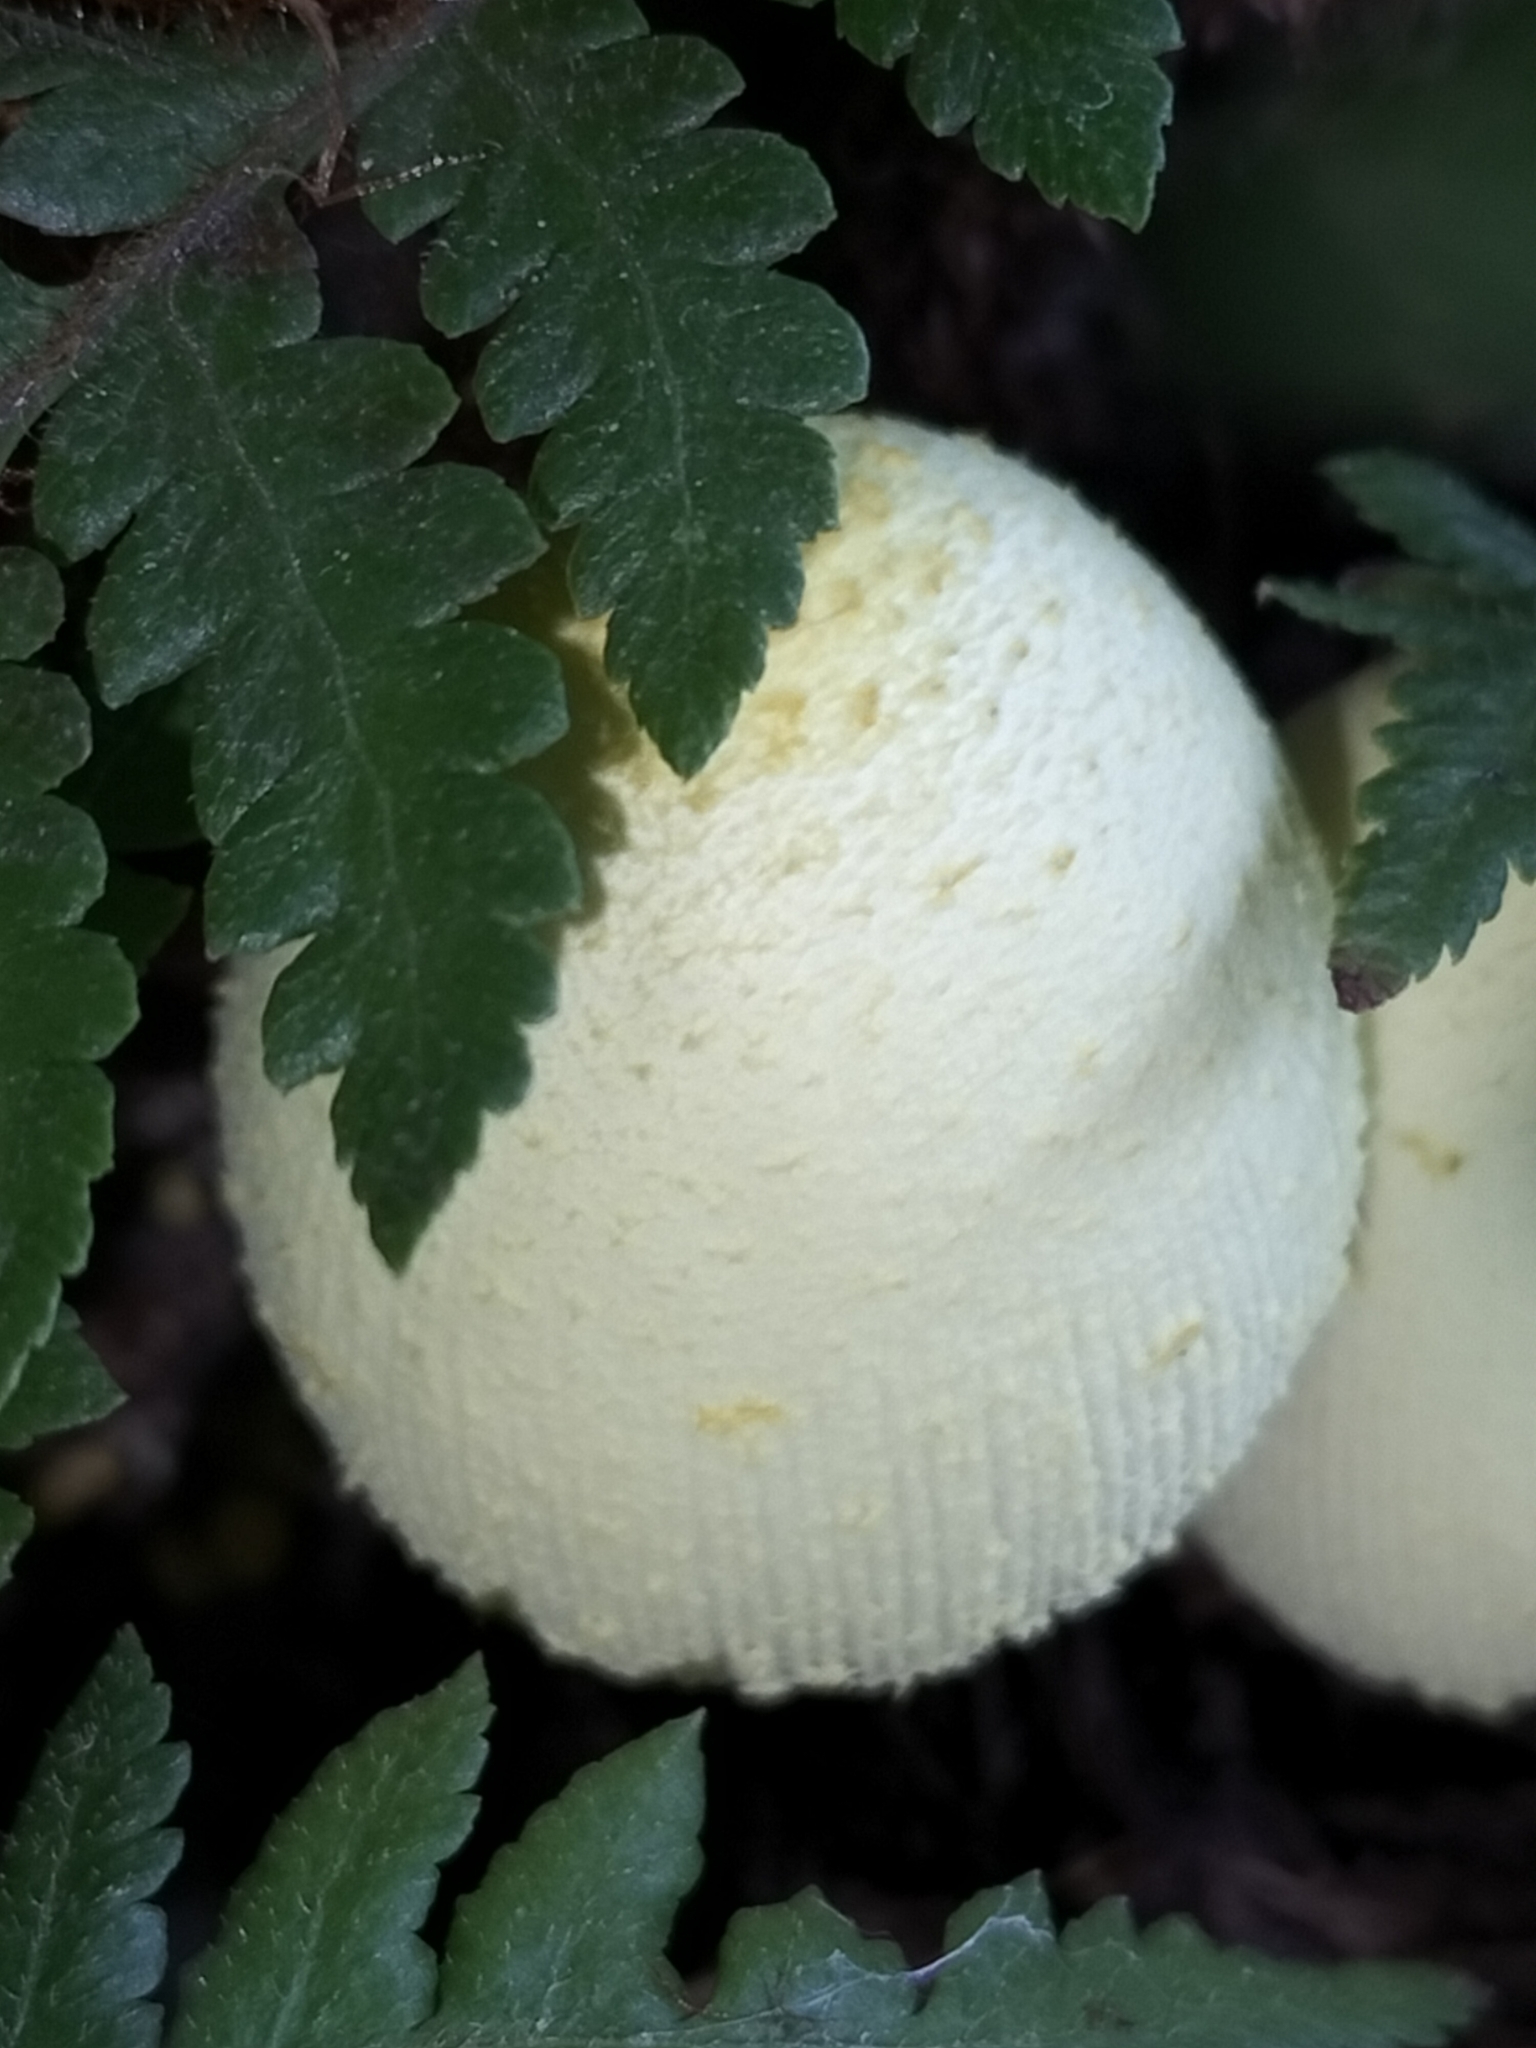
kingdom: Fungi
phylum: Basidiomycota
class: Agaricomycetes
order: Agaricales
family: Agaricaceae
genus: Leucocoprinus
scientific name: Leucocoprinus birnbaumii
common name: Plantpot dapperling
